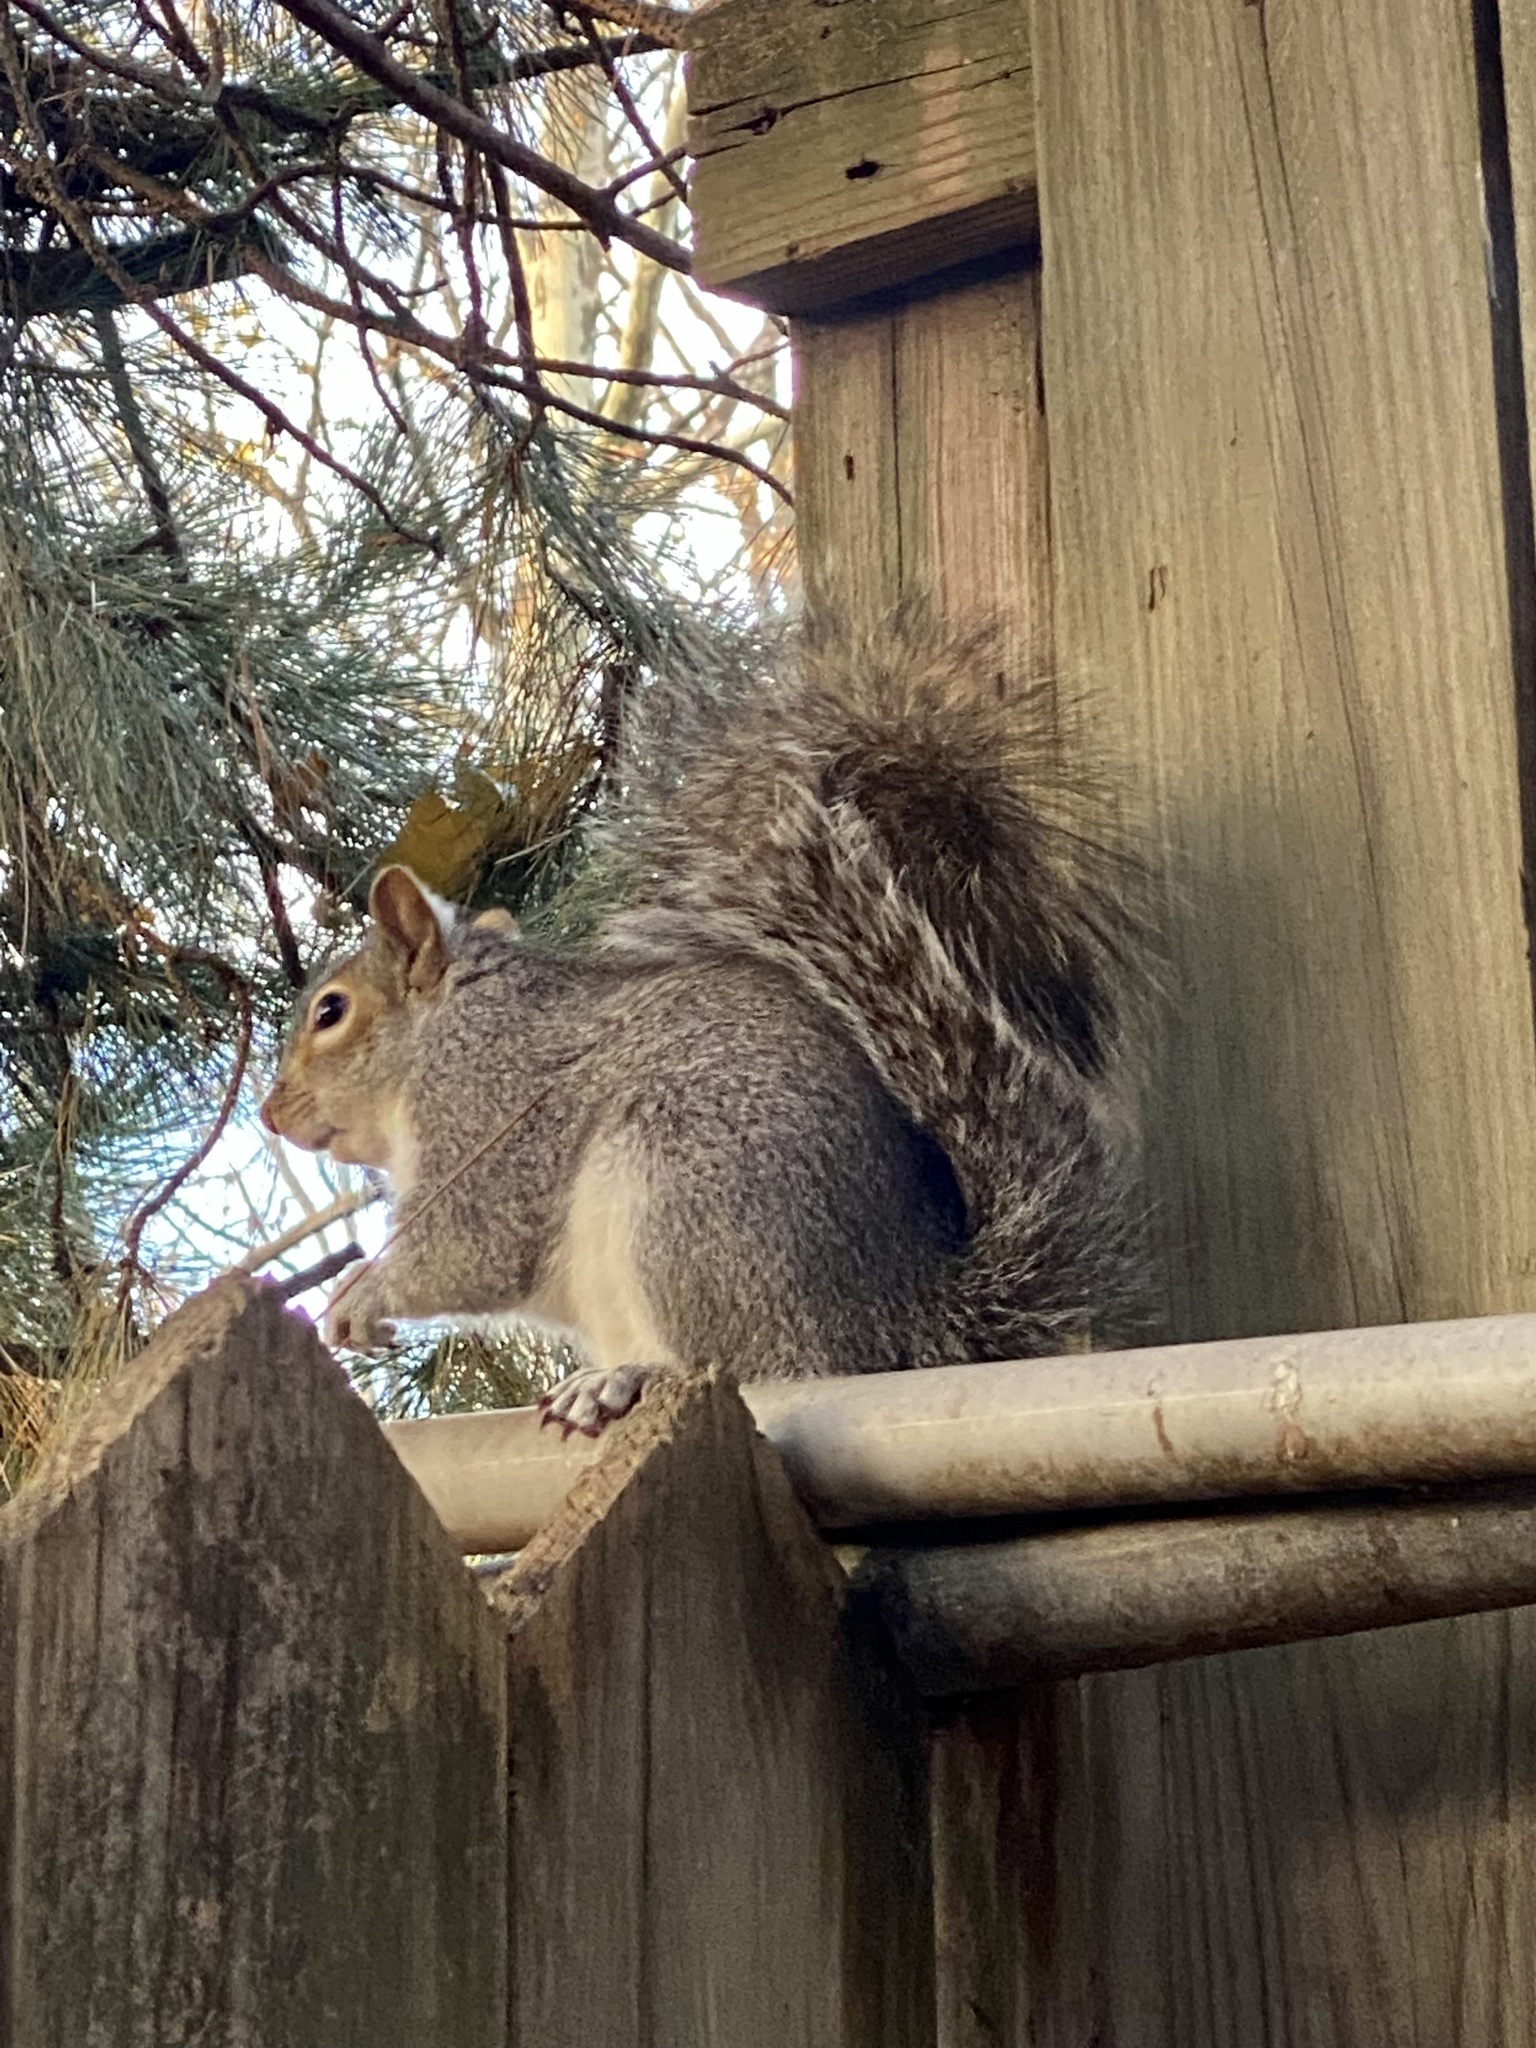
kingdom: Animalia
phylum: Chordata
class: Mammalia
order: Rodentia
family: Sciuridae
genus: Sciurus
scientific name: Sciurus carolinensis
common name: Eastern gray squirrel
